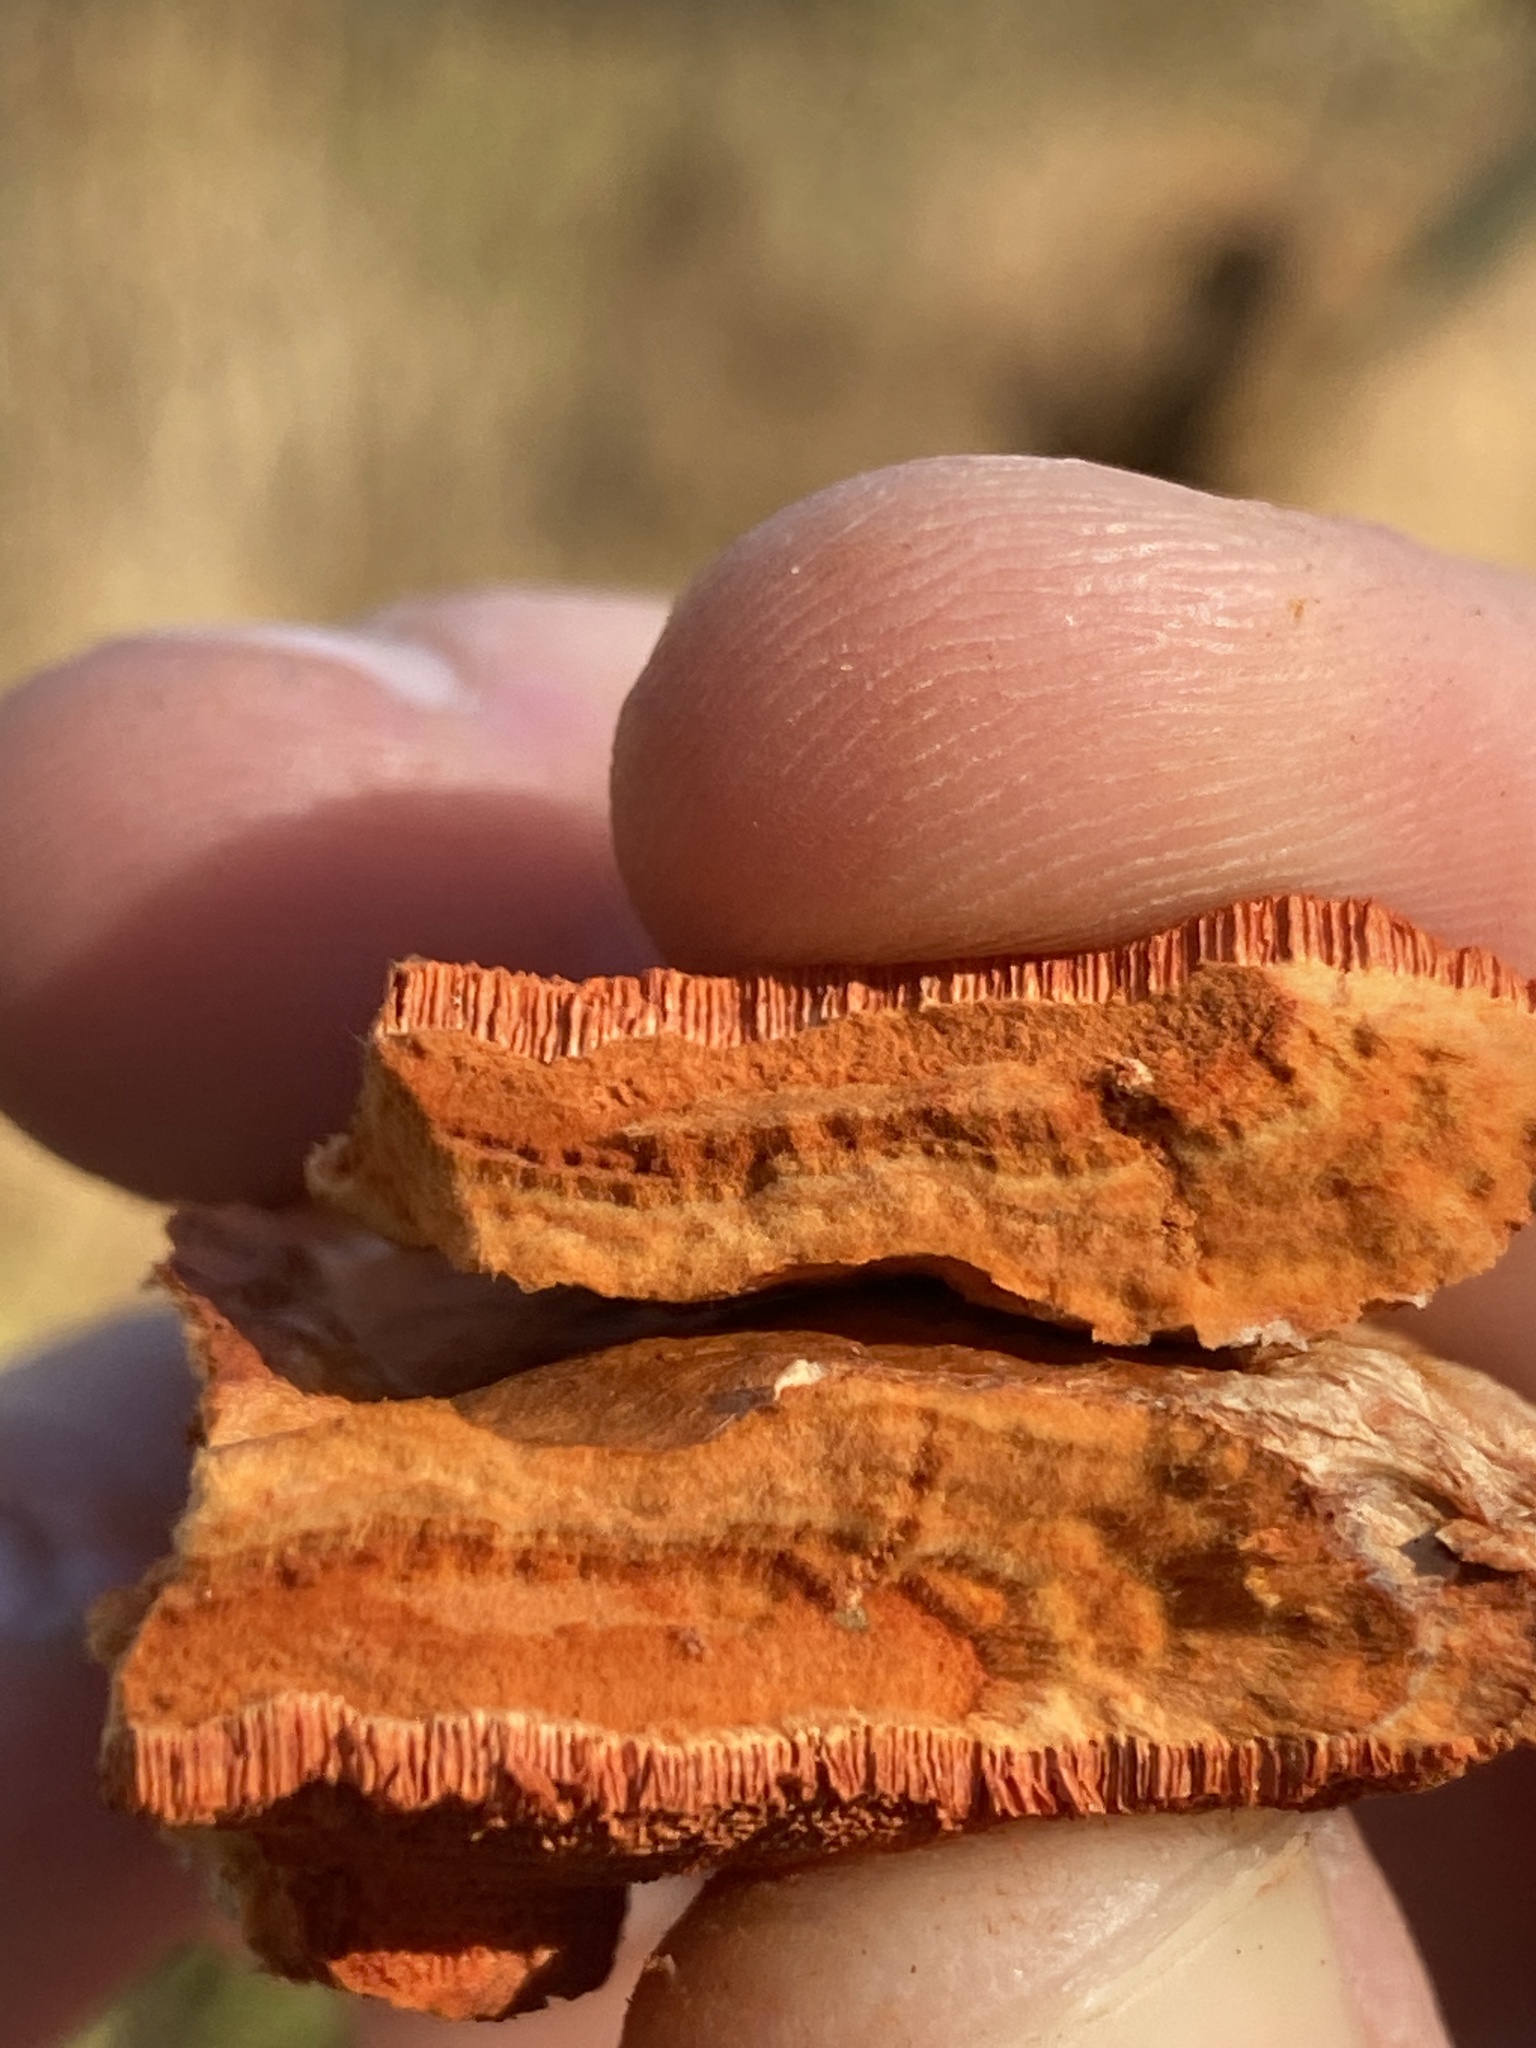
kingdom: Fungi
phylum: Basidiomycota
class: Agaricomycetes
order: Polyporales
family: Polyporaceae
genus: Trametes
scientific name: Trametes cinnabarina
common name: Northern cinnabar polypore
